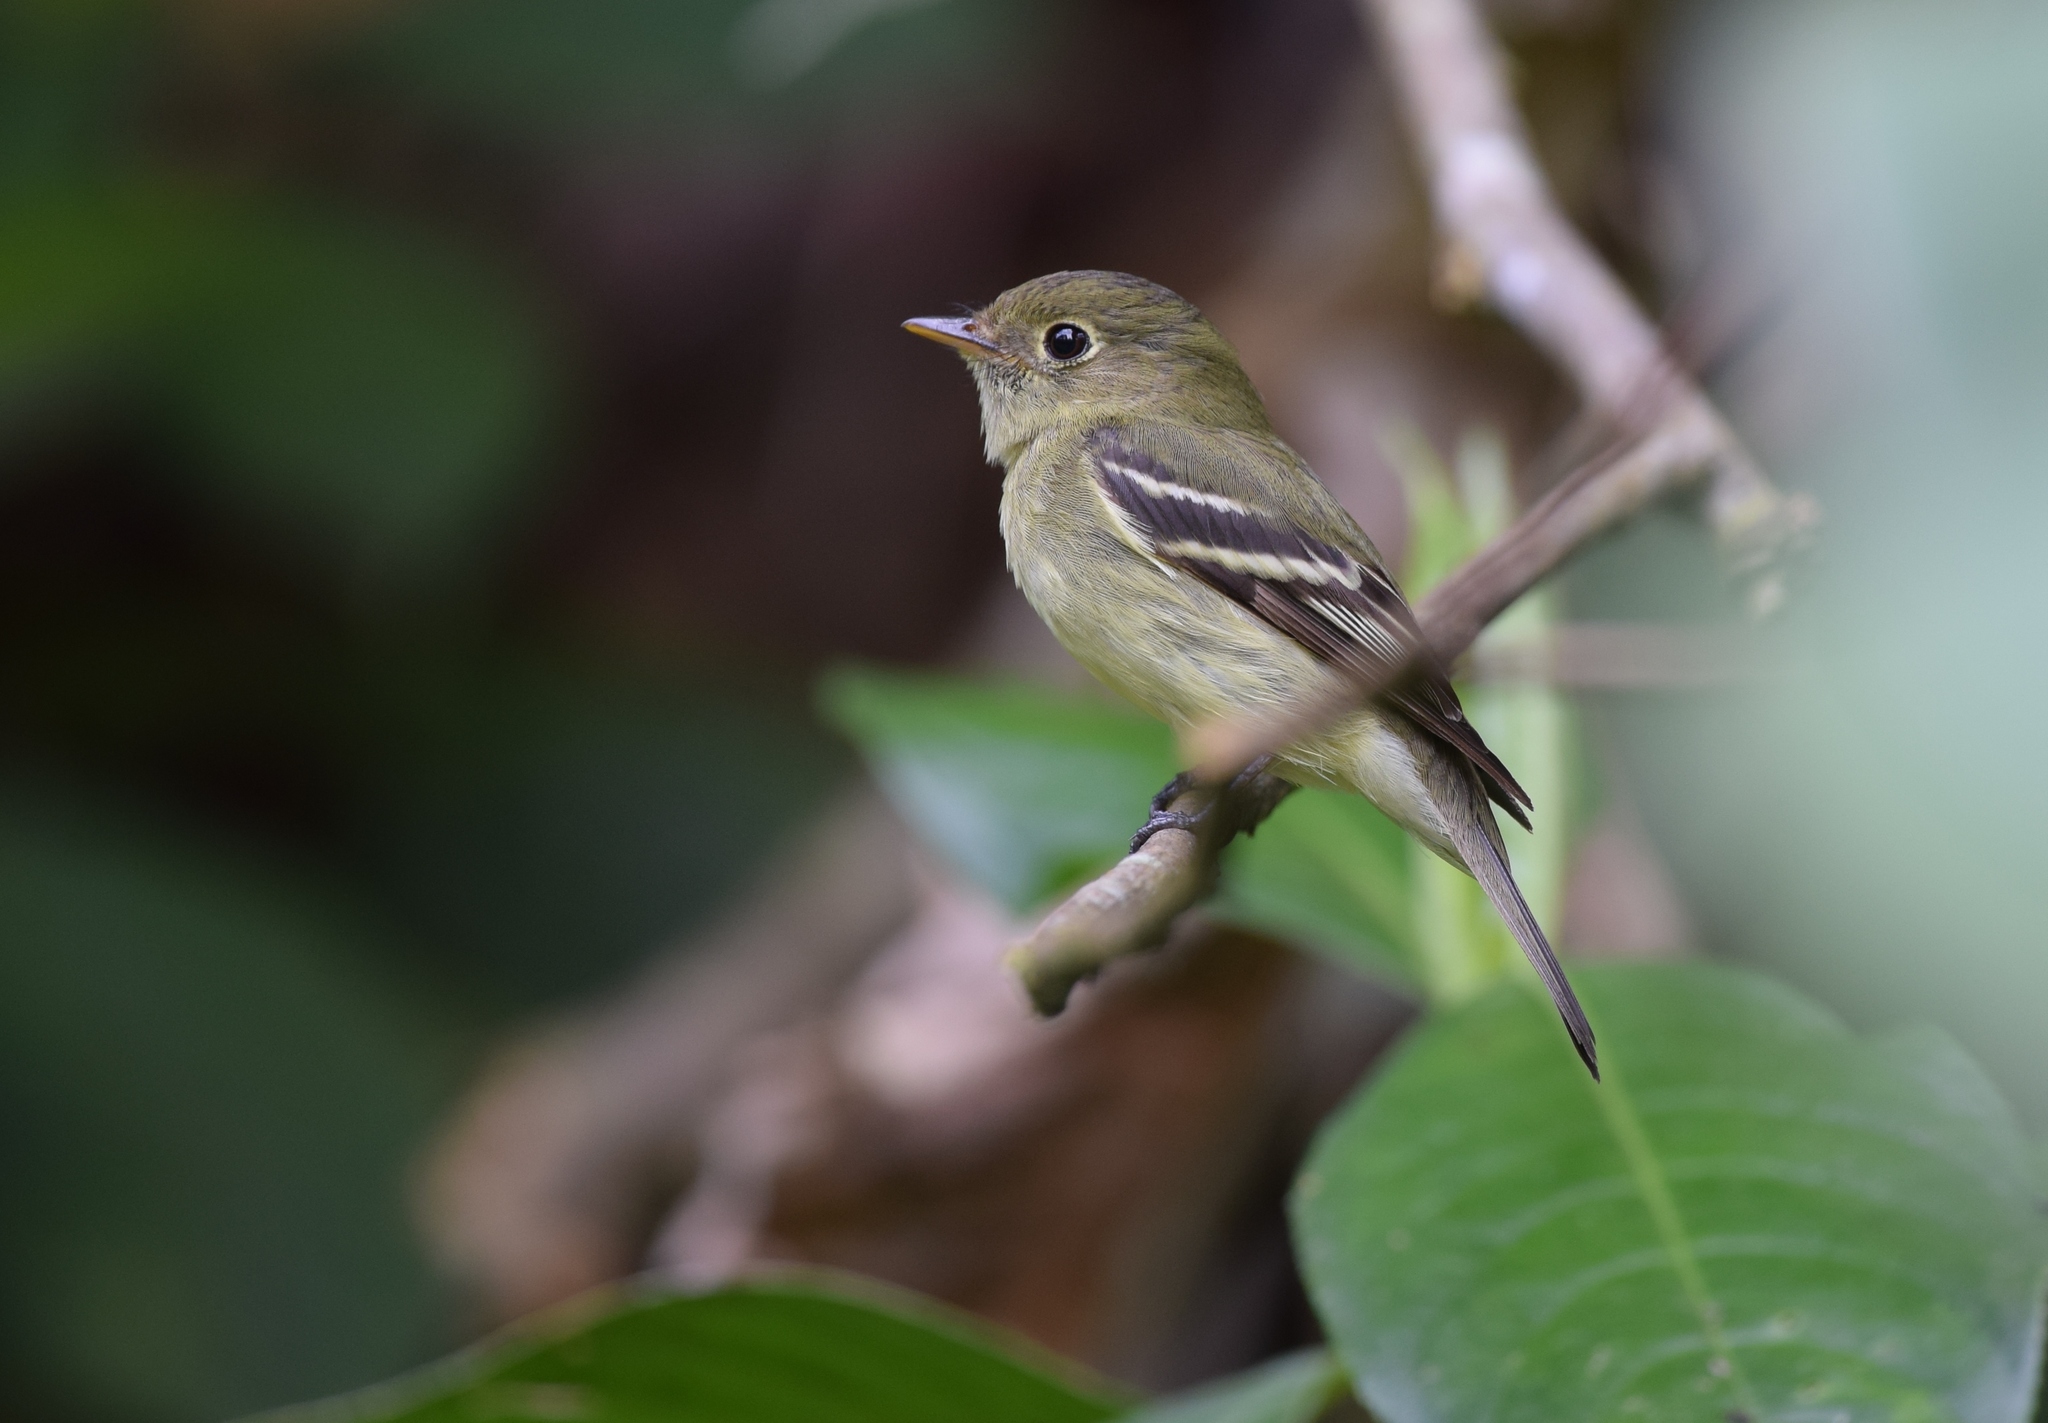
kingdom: Animalia
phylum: Chordata
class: Aves
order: Passeriformes
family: Tyrannidae
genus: Empidonax
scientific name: Empidonax flaviventris
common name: Yellow-bellied flycatcher
